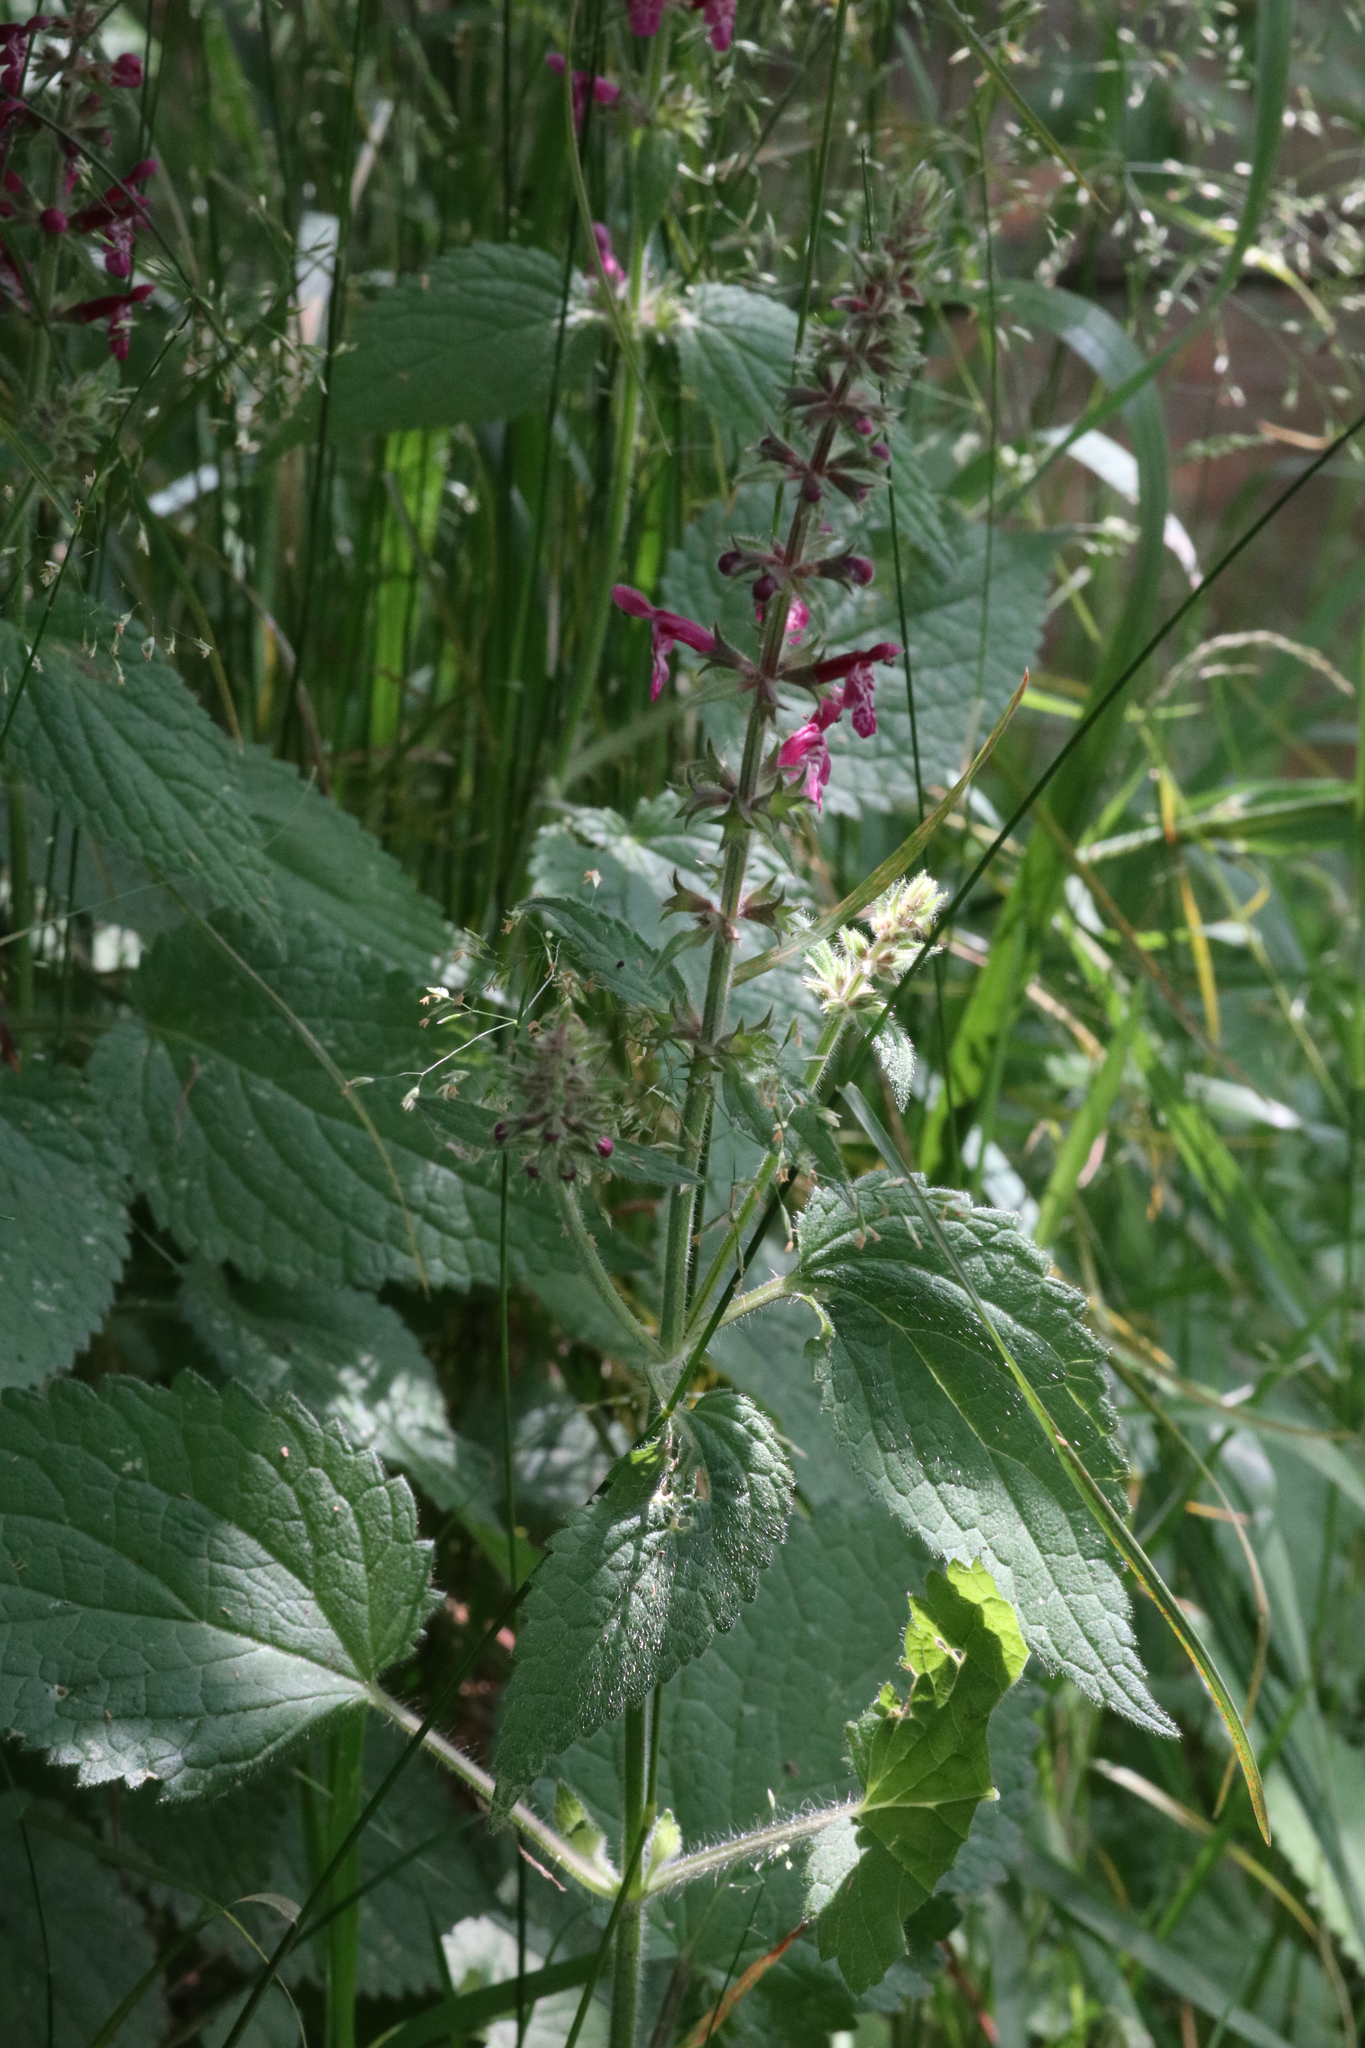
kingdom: Plantae
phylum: Tracheophyta
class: Magnoliopsida
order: Lamiales
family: Lamiaceae
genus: Stachys
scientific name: Stachys sylvatica
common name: Hedge woundwort
